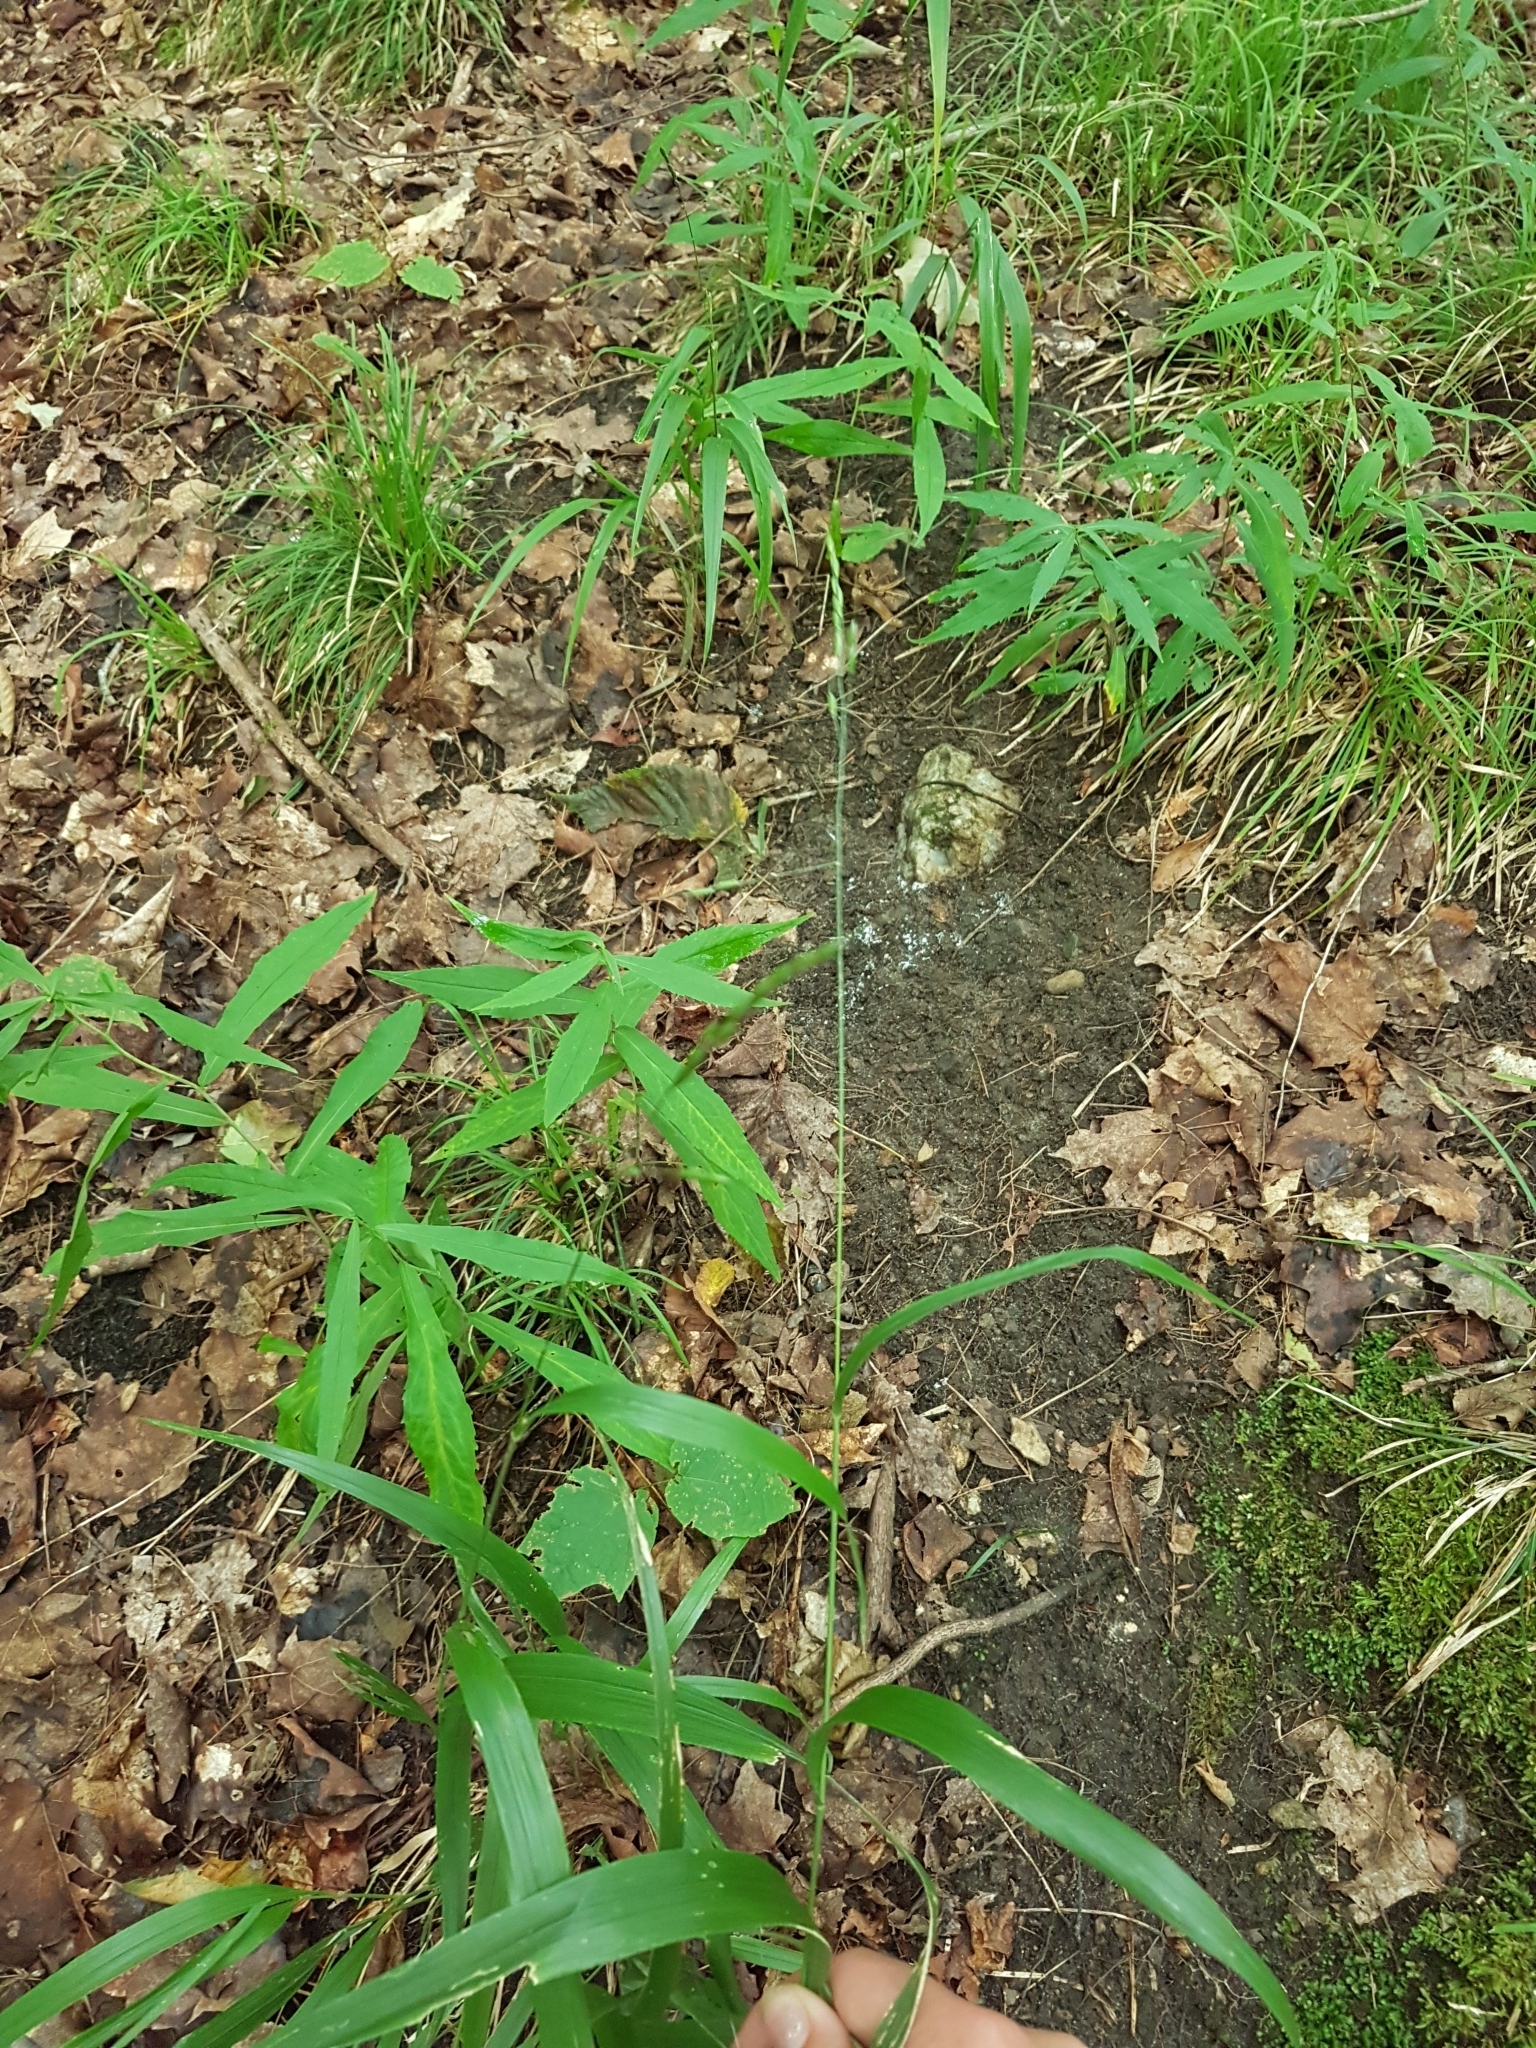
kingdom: Plantae
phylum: Tracheophyta
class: Liliopsida
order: Poales
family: Poaceae
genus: Patis
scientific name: Patis racemosa
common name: Black-fruited mountain rice
